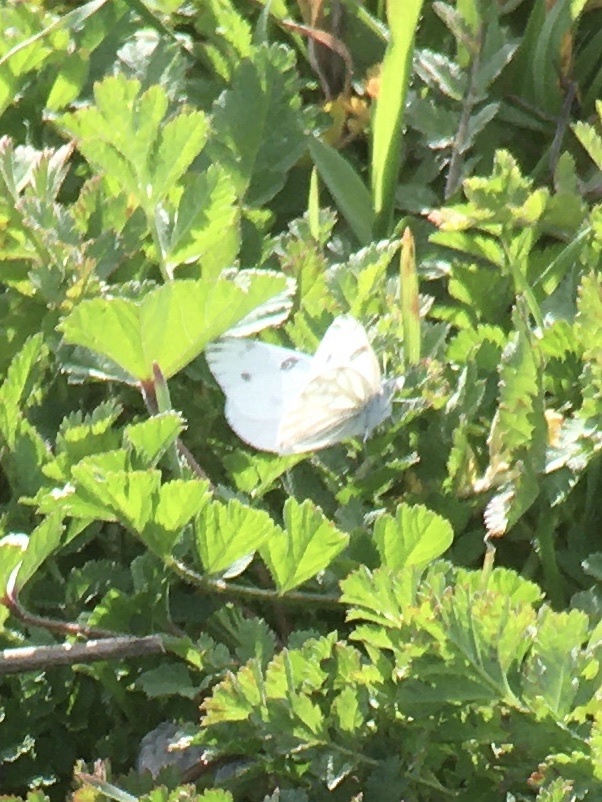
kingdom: Animalia
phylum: Arthropoda
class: Insecta
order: Lepidoptera
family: Pieridae
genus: Pontia
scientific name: Pontia protodice
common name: Checkered white
